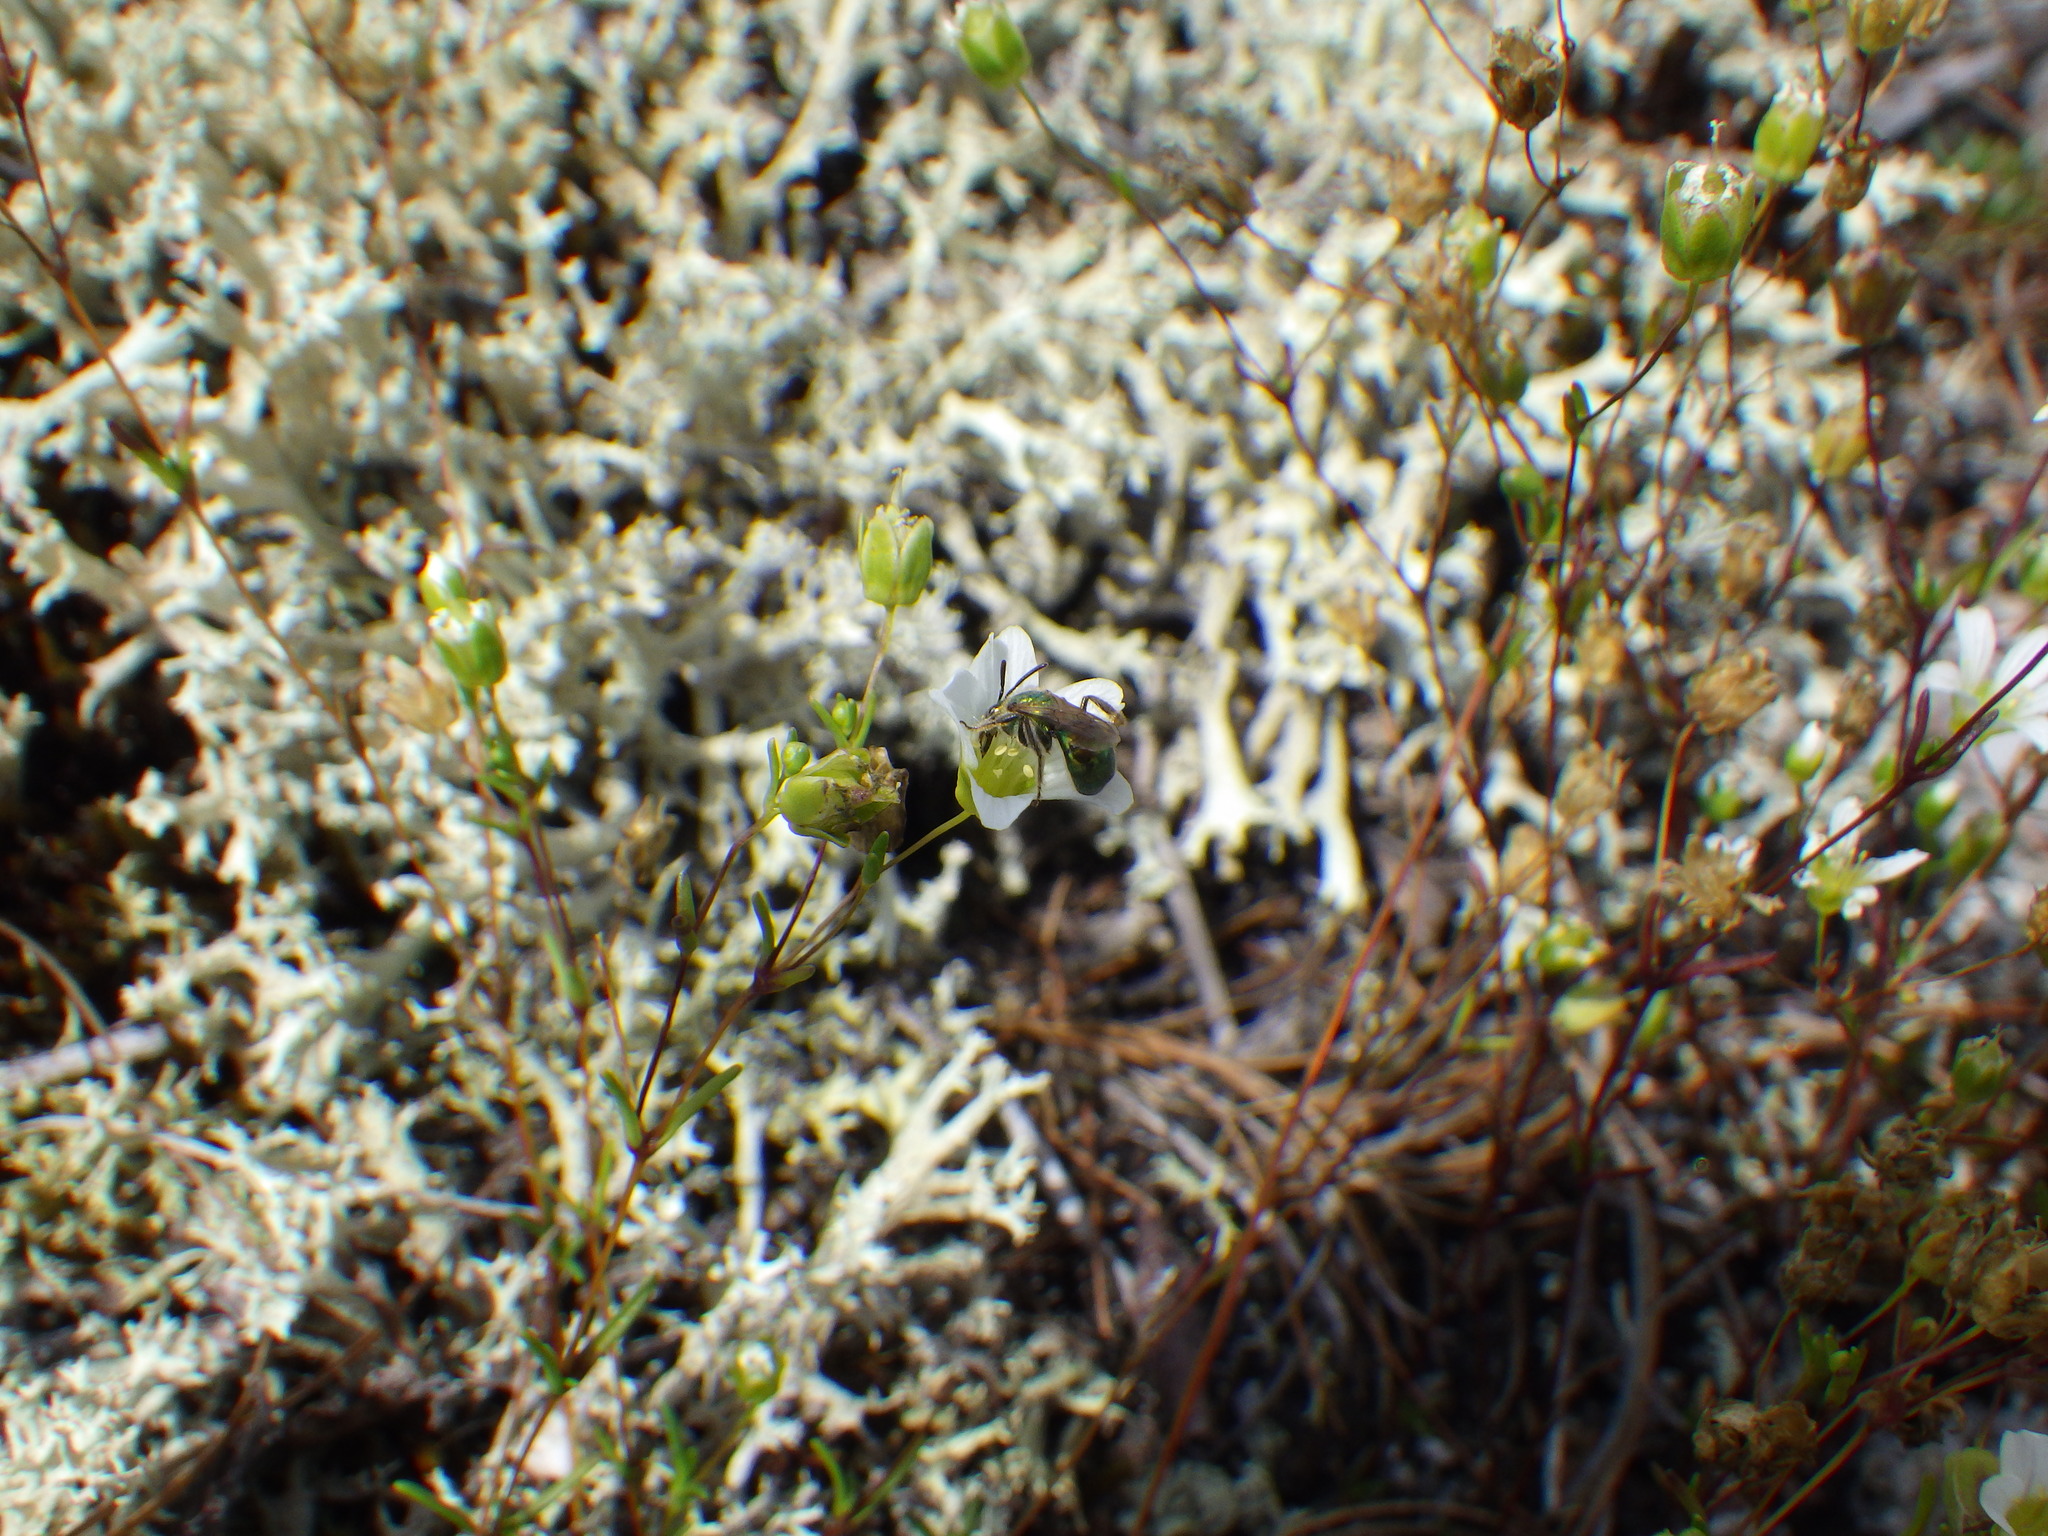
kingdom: Plantae
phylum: Tracheophyta
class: Magnoliopsida
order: Caryophyllales
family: Caryophyllaceae
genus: Geocarpon
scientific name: Geocarpon groenlandicum
